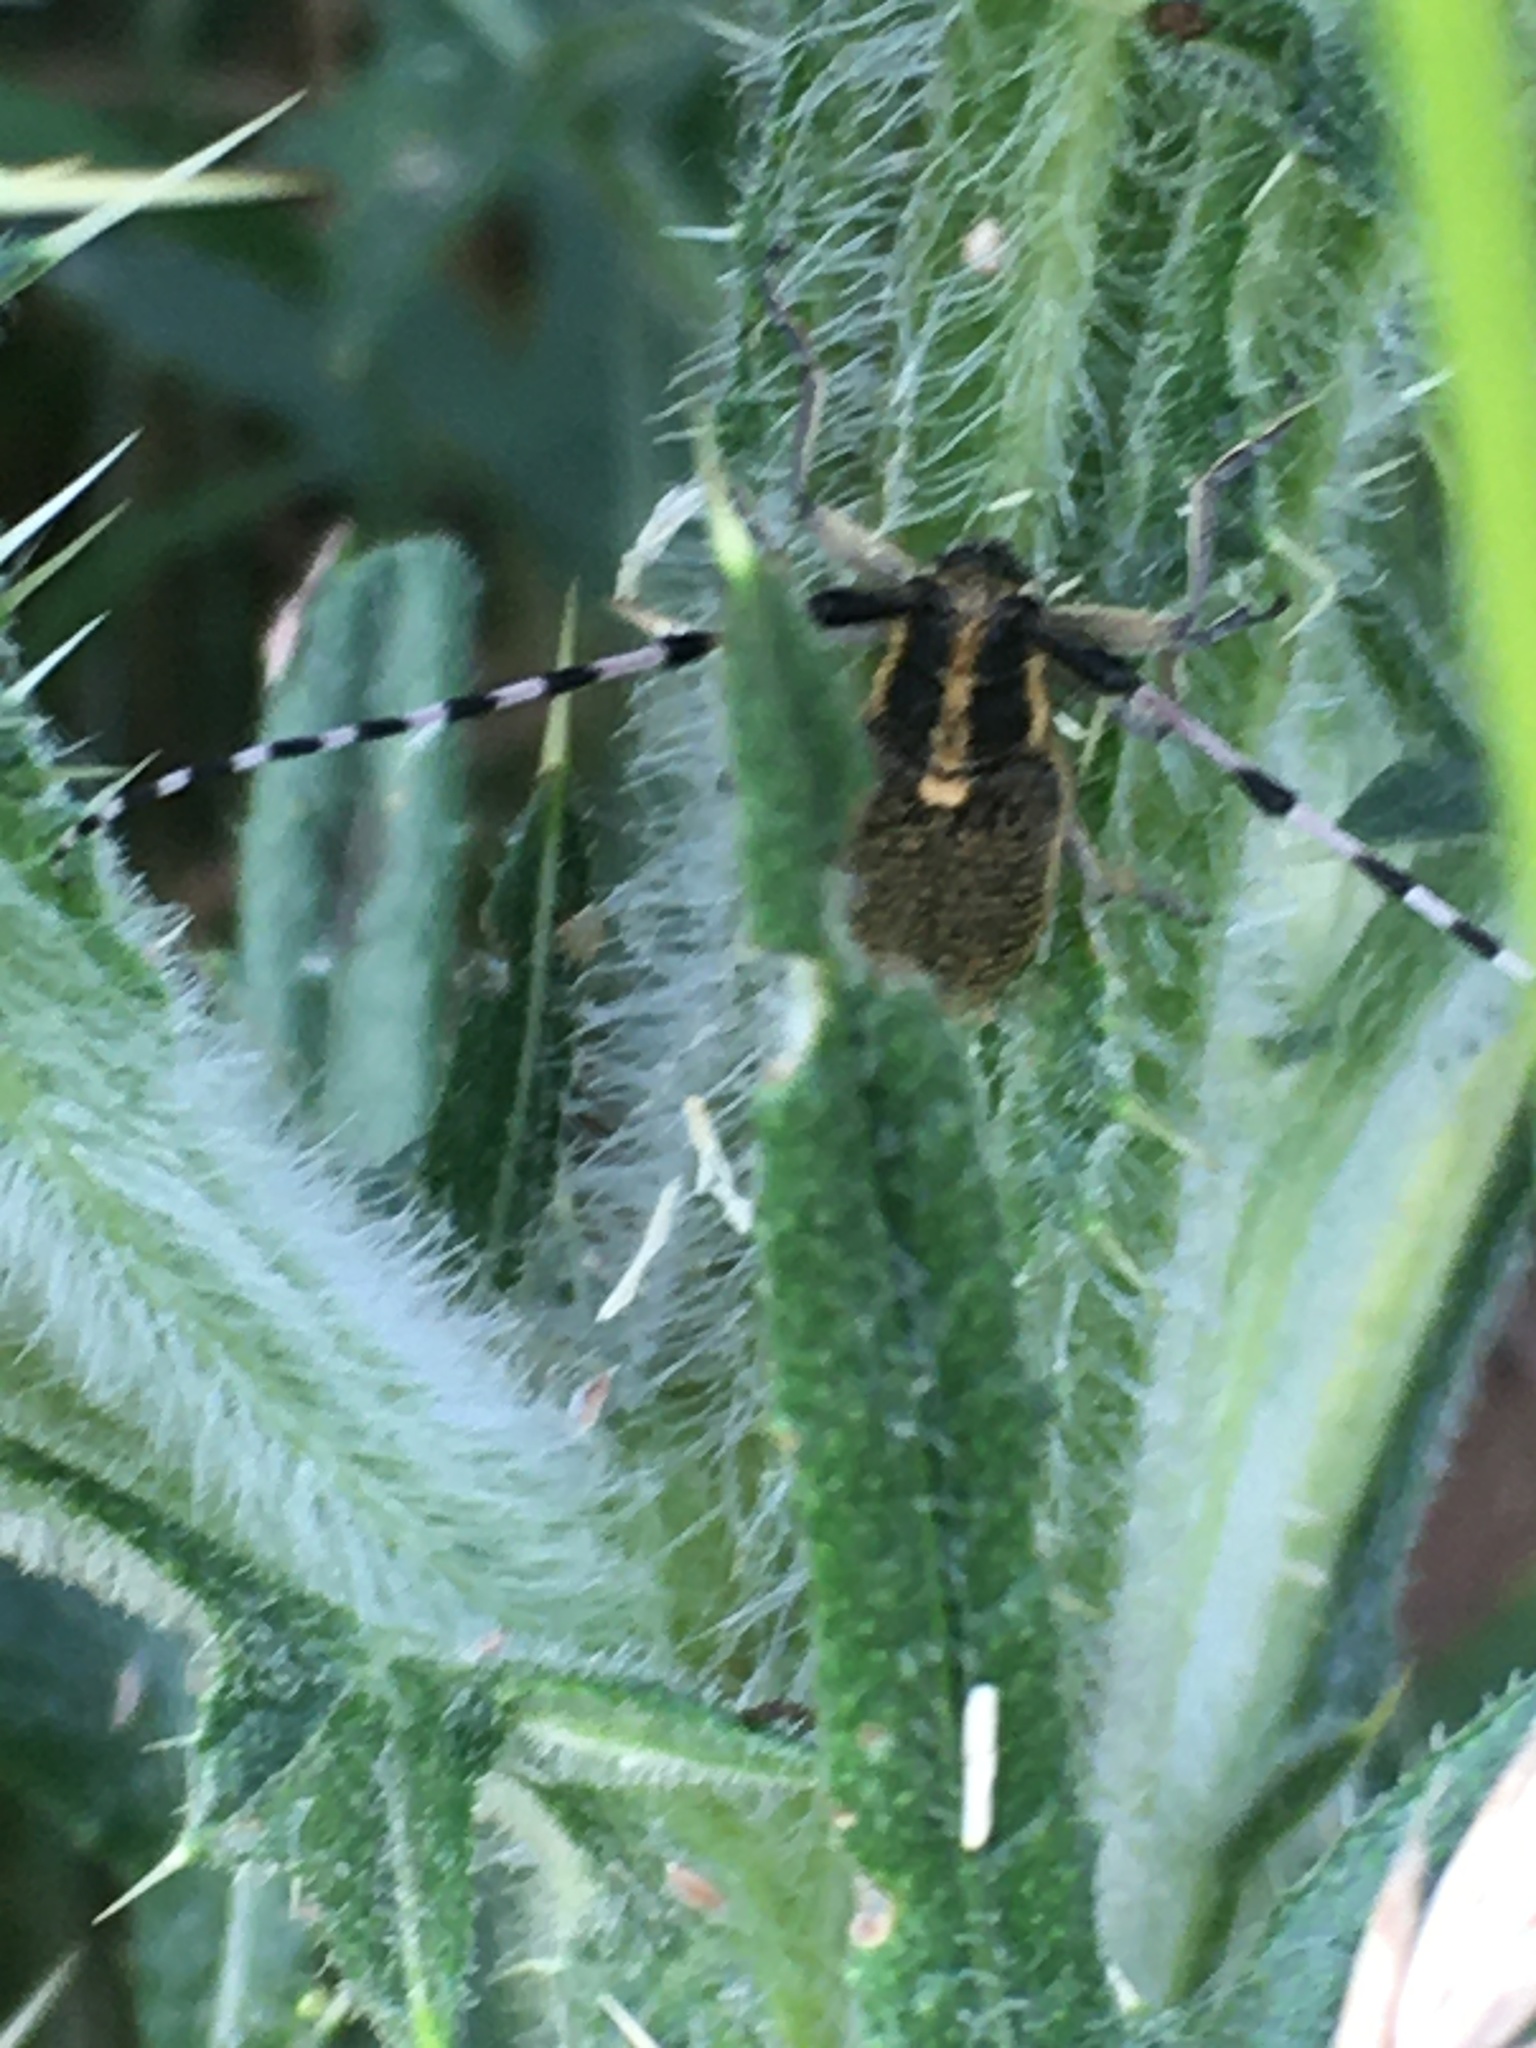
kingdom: Animalia
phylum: Arthropoda
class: Insecta
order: Coleoptera
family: Cerambycidae
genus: Agapanthia
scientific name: Agapanthia villosoviridescens
